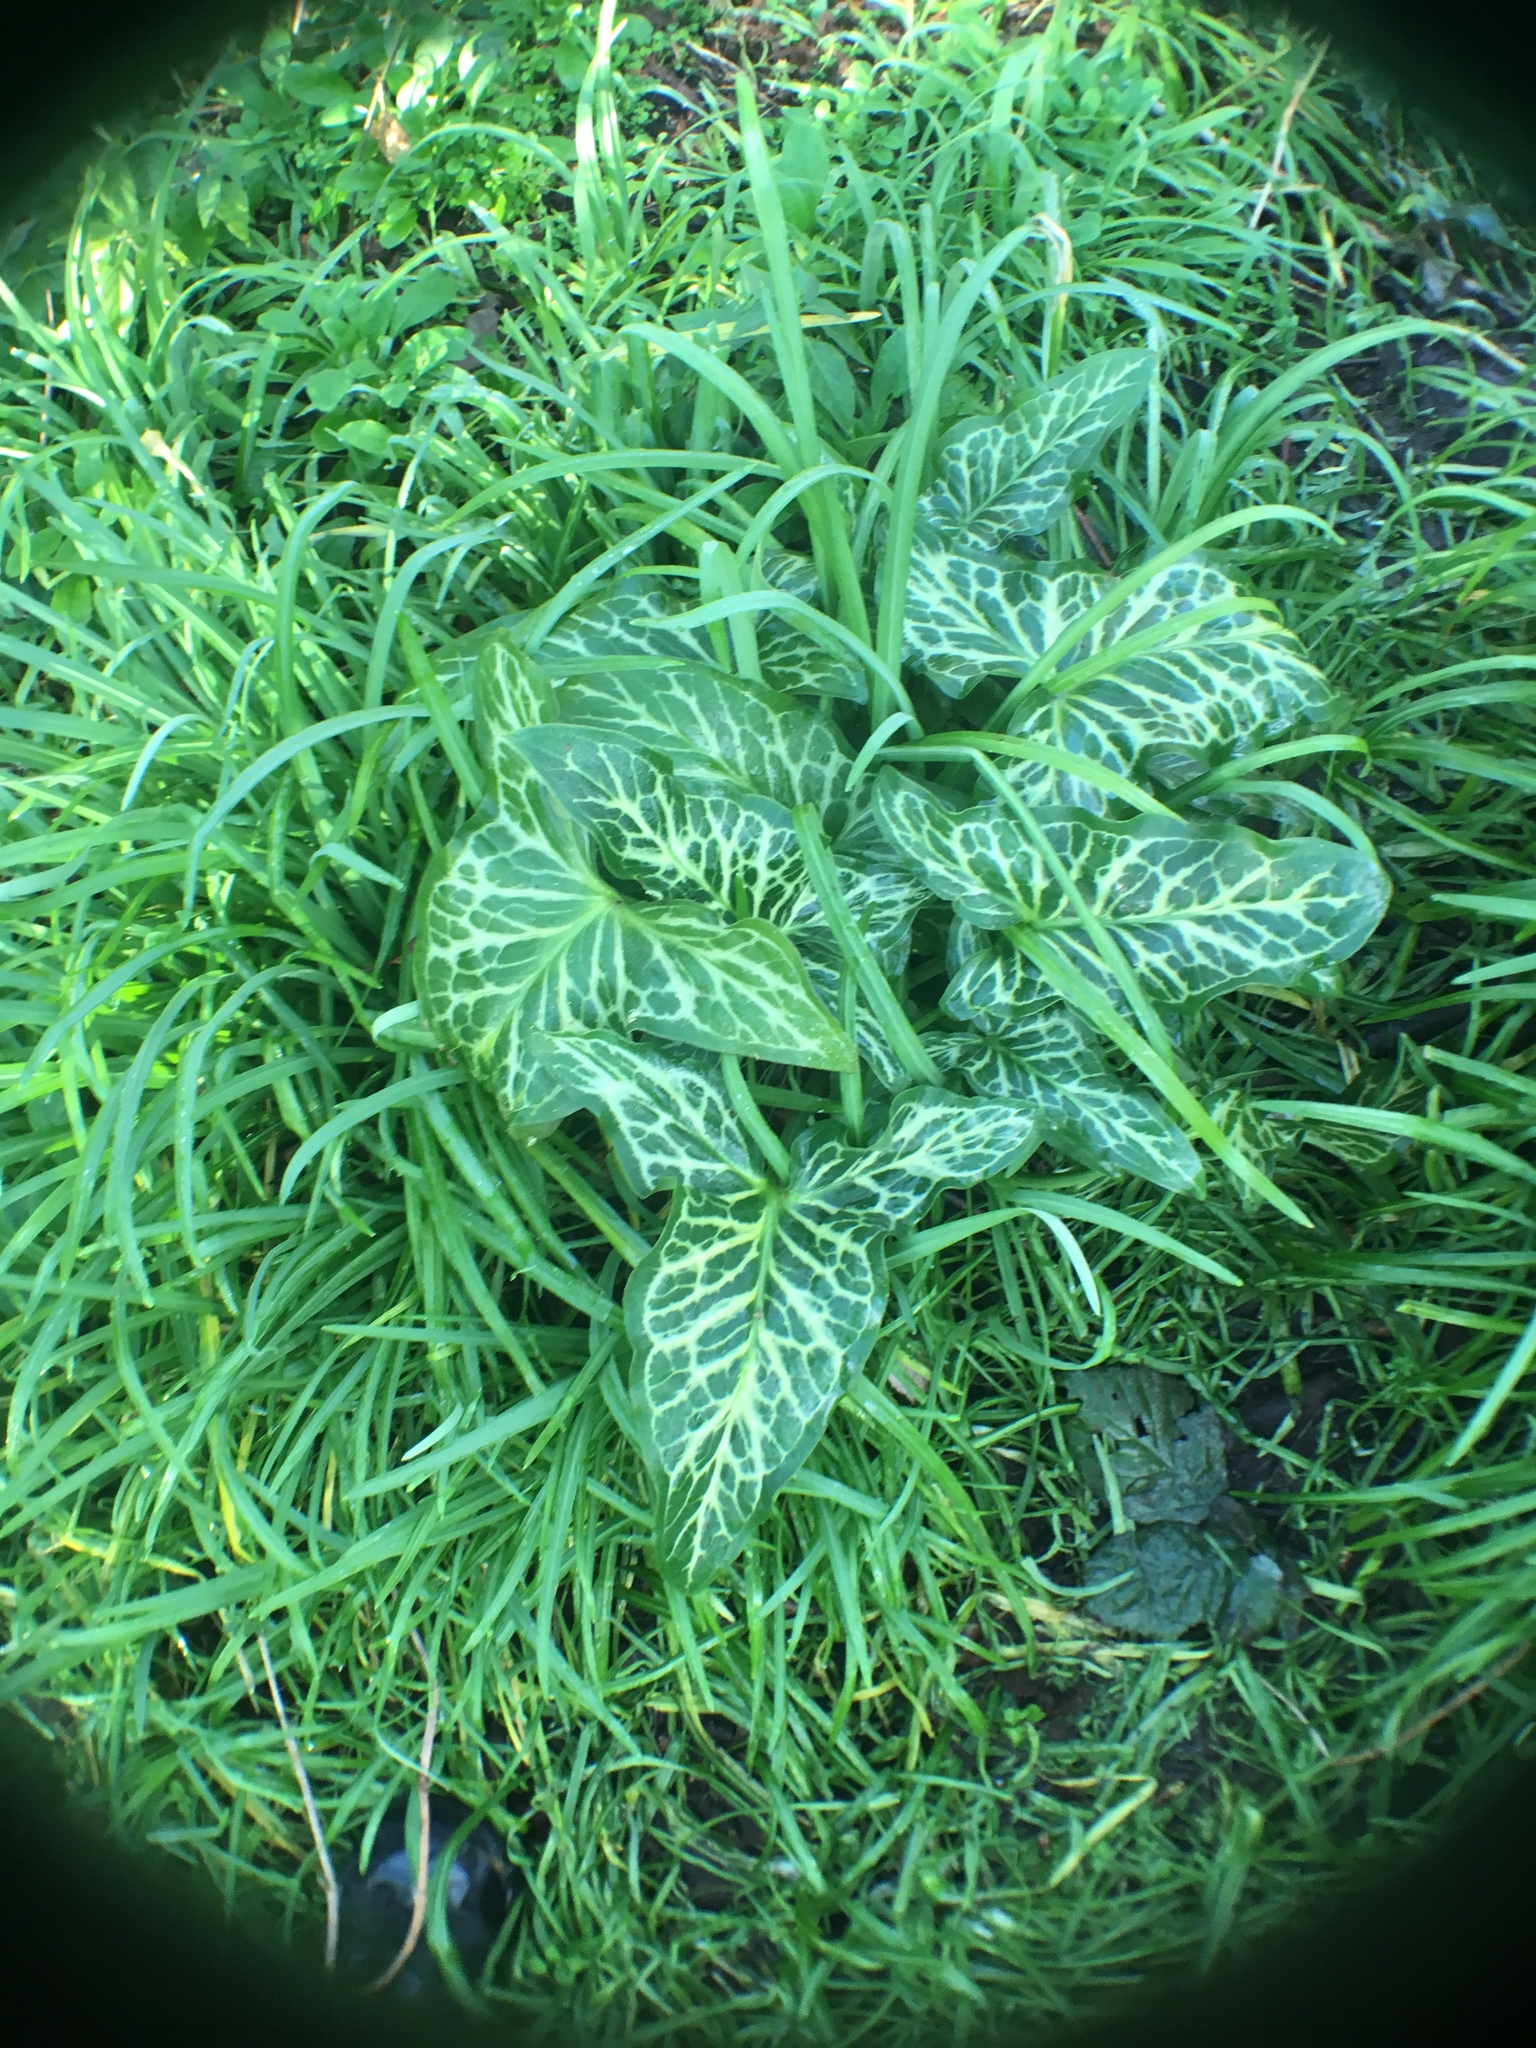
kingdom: Plantae
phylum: Tracheophyta
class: Liliopsida
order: Alismatales
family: Araceae
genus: Arum
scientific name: Arum italicum
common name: Italian lords-and-ladies
